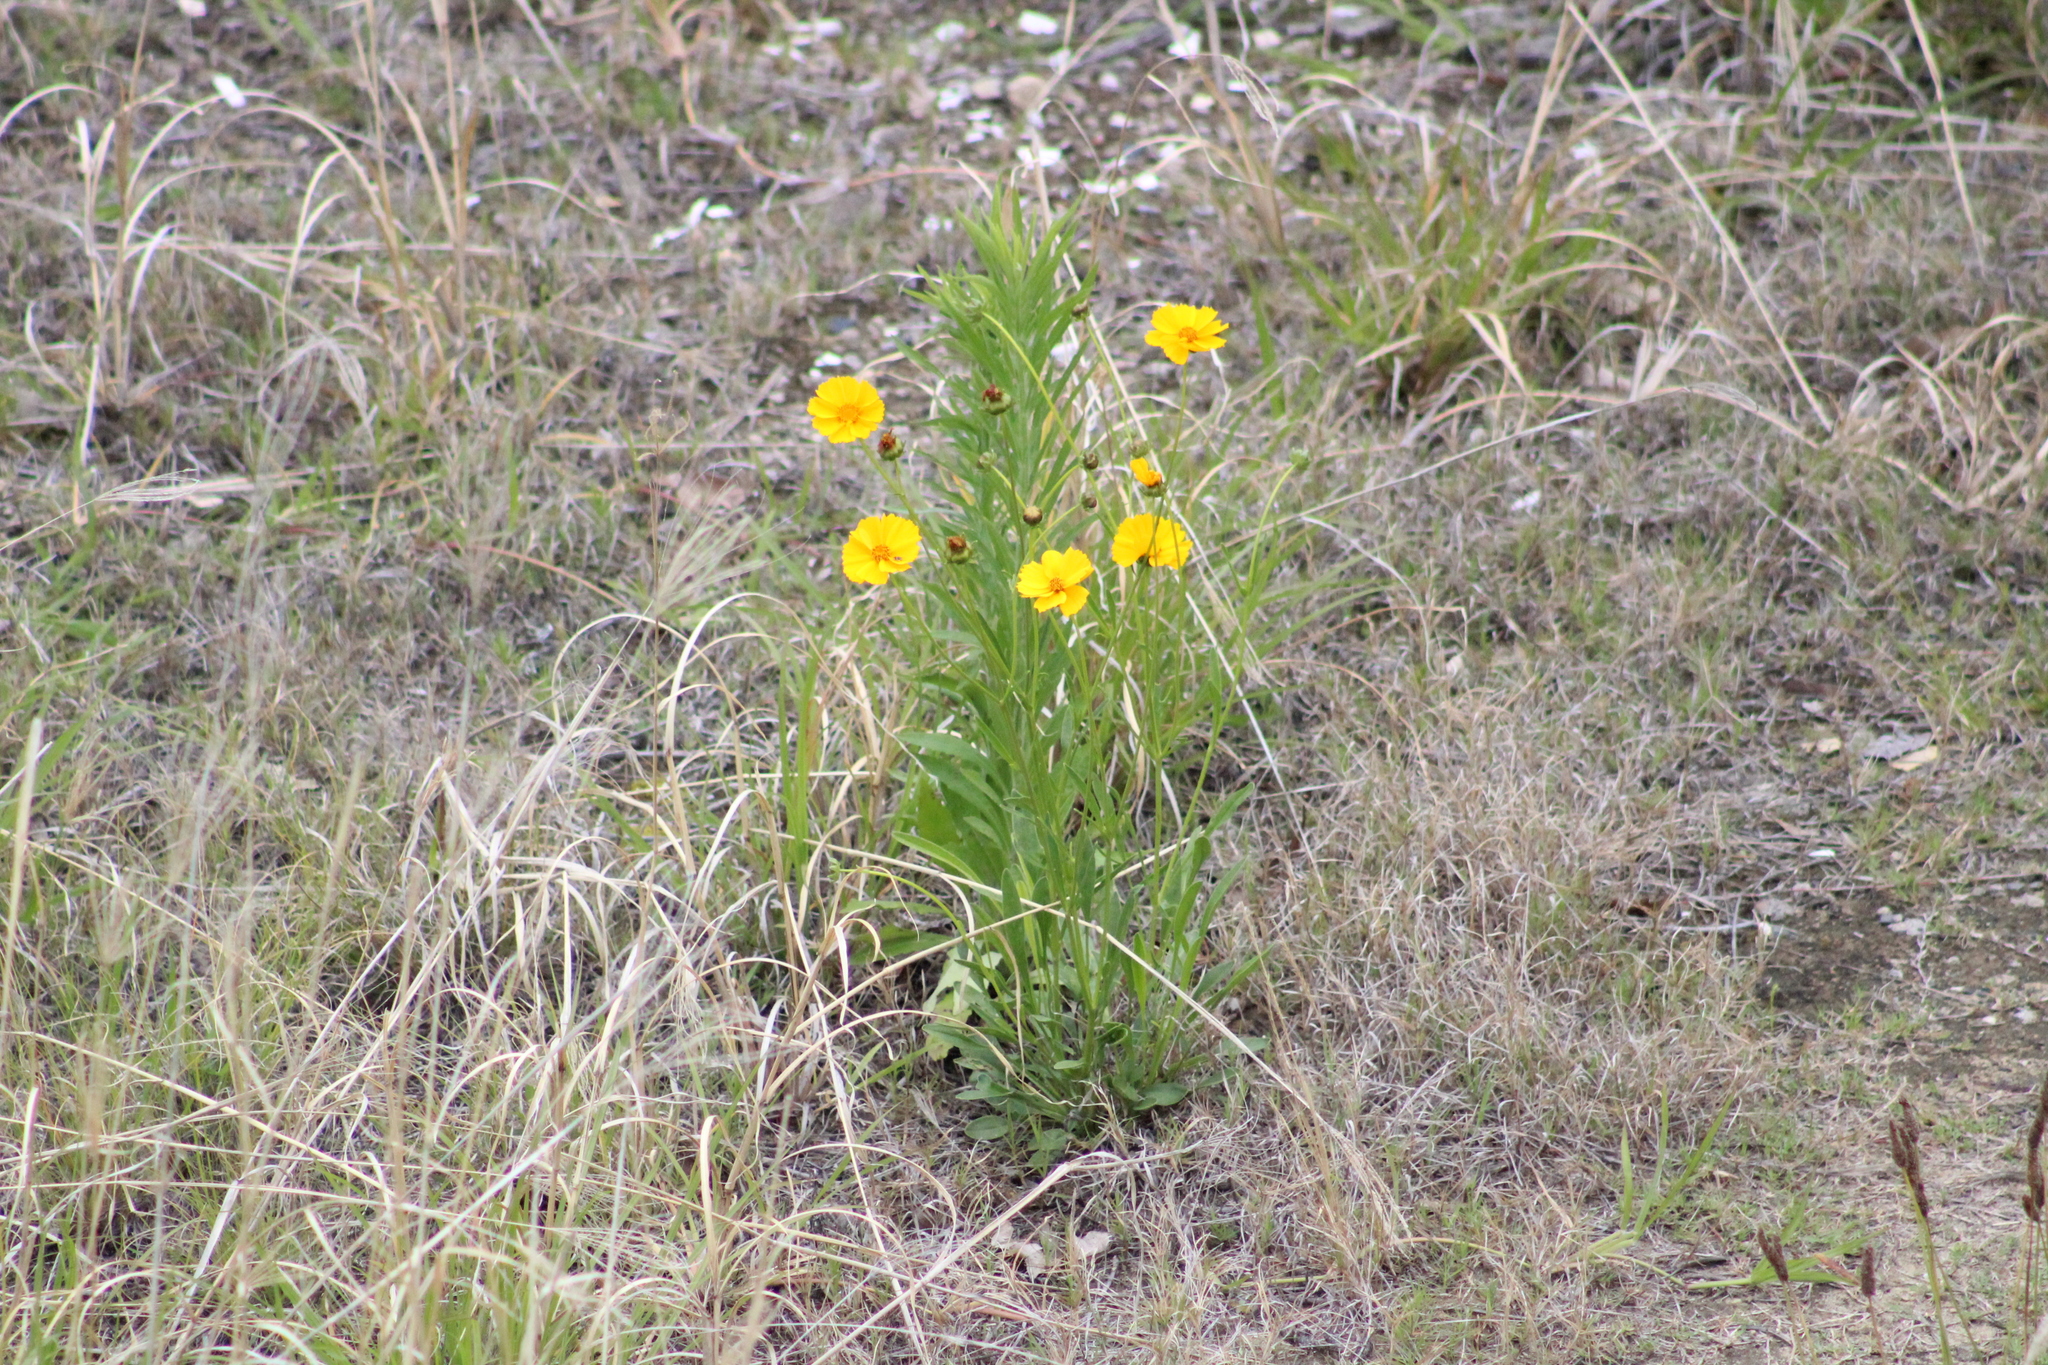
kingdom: Plantae
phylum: Tracheophyta
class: Magnoliopsida
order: Asterales
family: Asteraceae
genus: Coreopsis
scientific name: Coreopsis lanceolata
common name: Garden coreopsis
